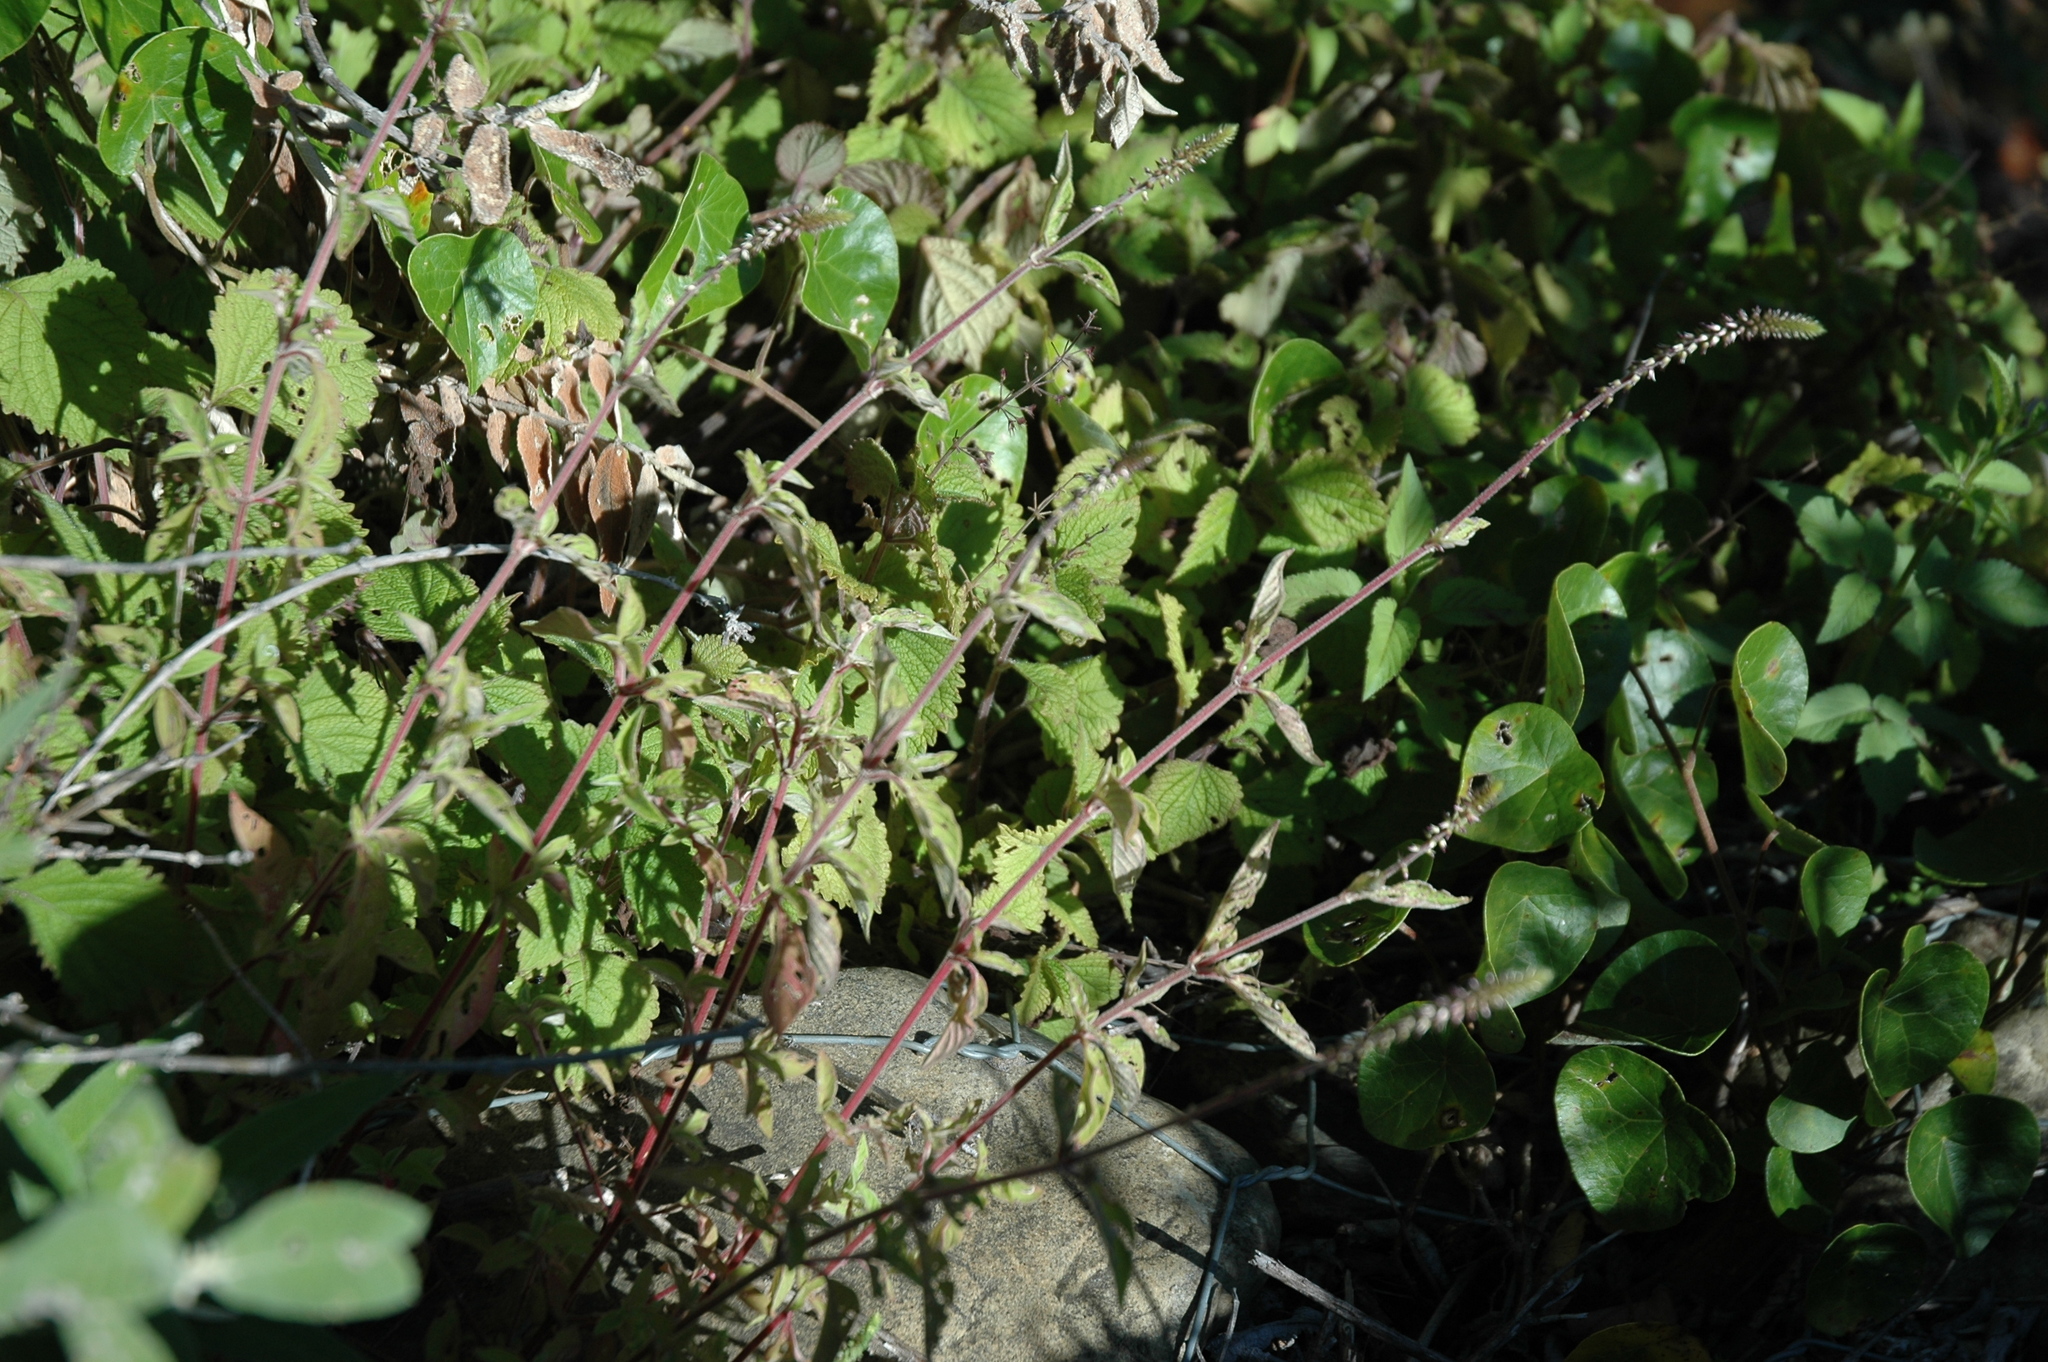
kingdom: Plantae
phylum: Tracheophyta
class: Magnoliopsida
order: Caryophyllales
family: Amaranthaceae
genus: Achyranthes
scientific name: Achyranthes aspera
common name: Devil's horsewhip
